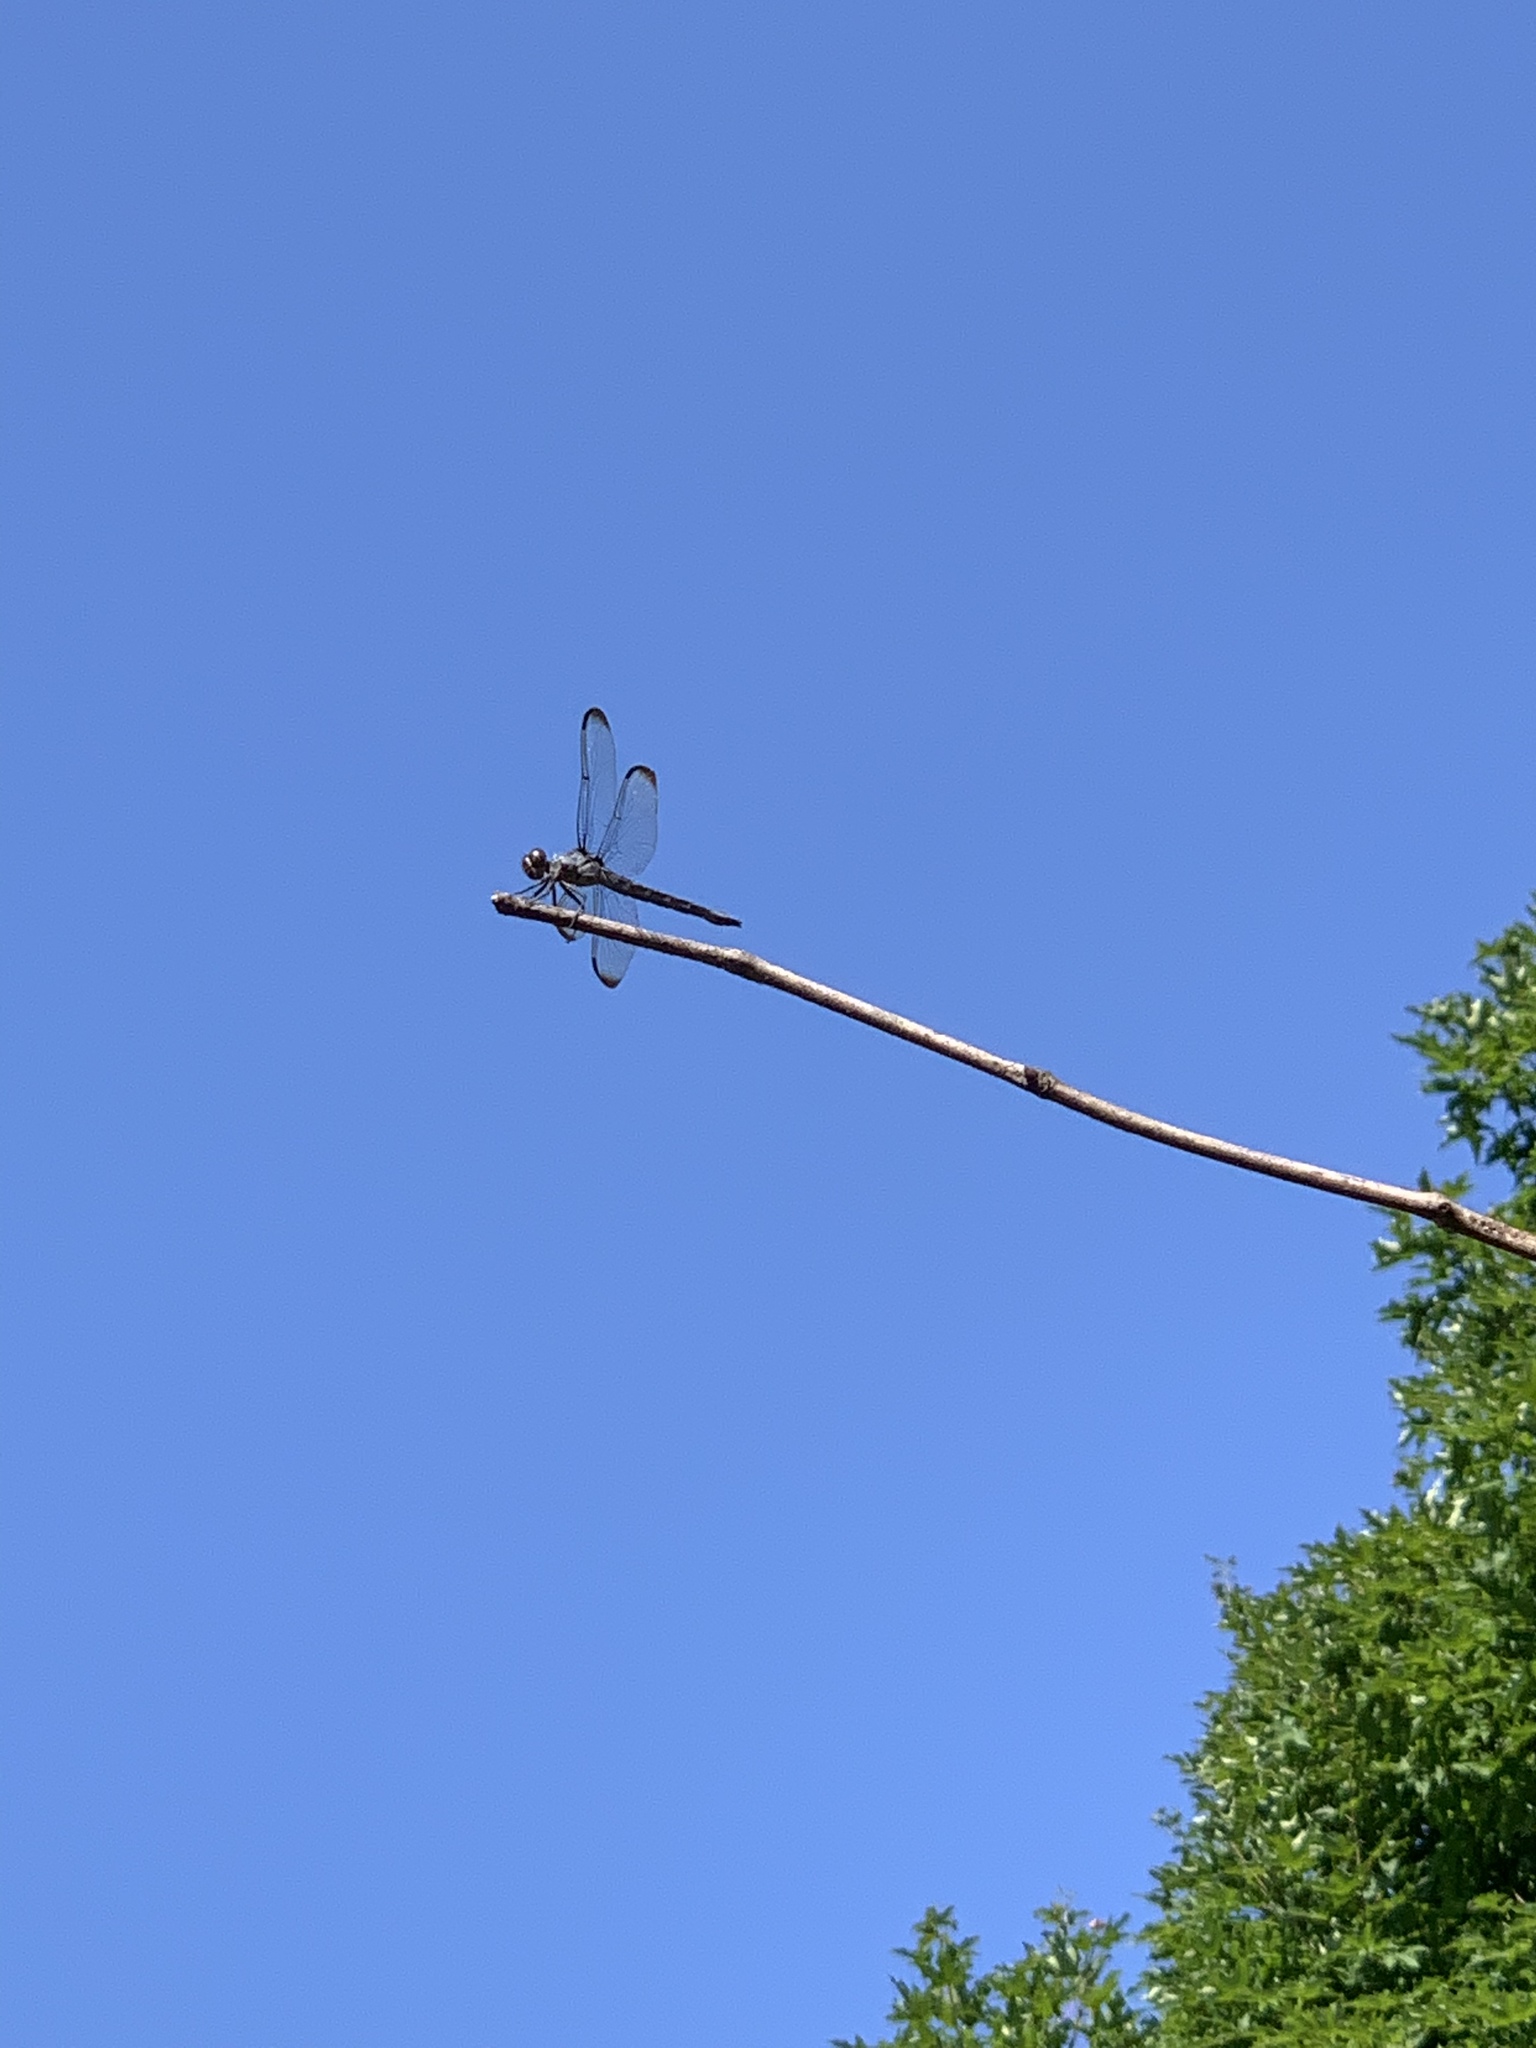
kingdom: Animalia
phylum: Arthropoda
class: Insecta
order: Odonata
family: Libellulidae
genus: Libellula
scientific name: Libellula vibrans
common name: Great blue skimmer
